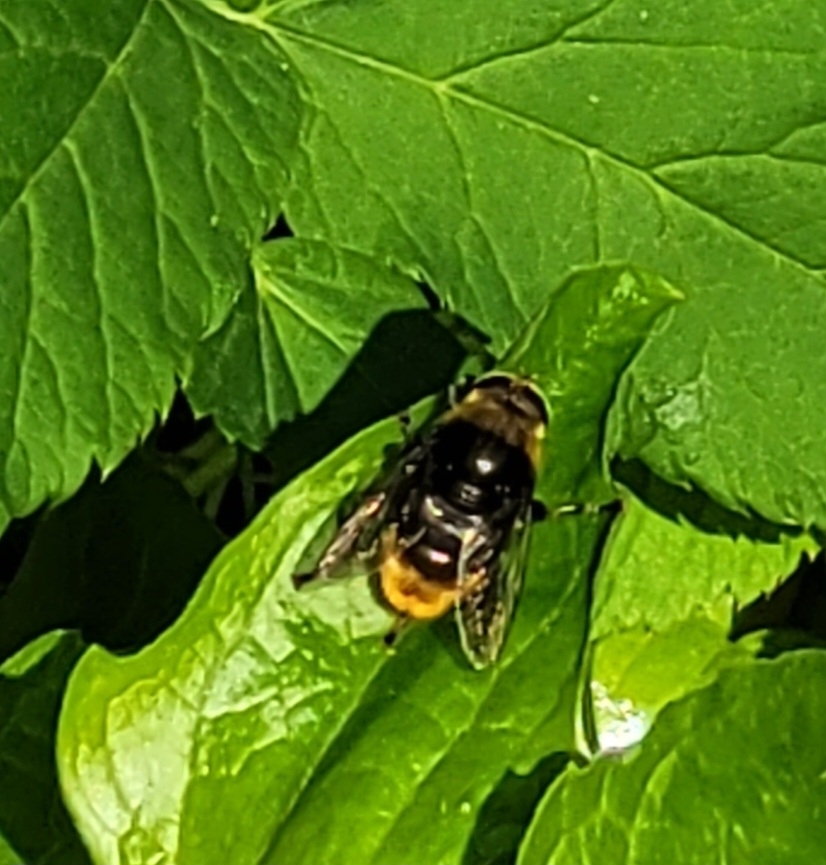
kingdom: Animalia
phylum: Arthropoda
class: Insecta
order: Diptera
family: Syrphidae
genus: Merodon
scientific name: Merodon equestris
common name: Greater bulb-fly
